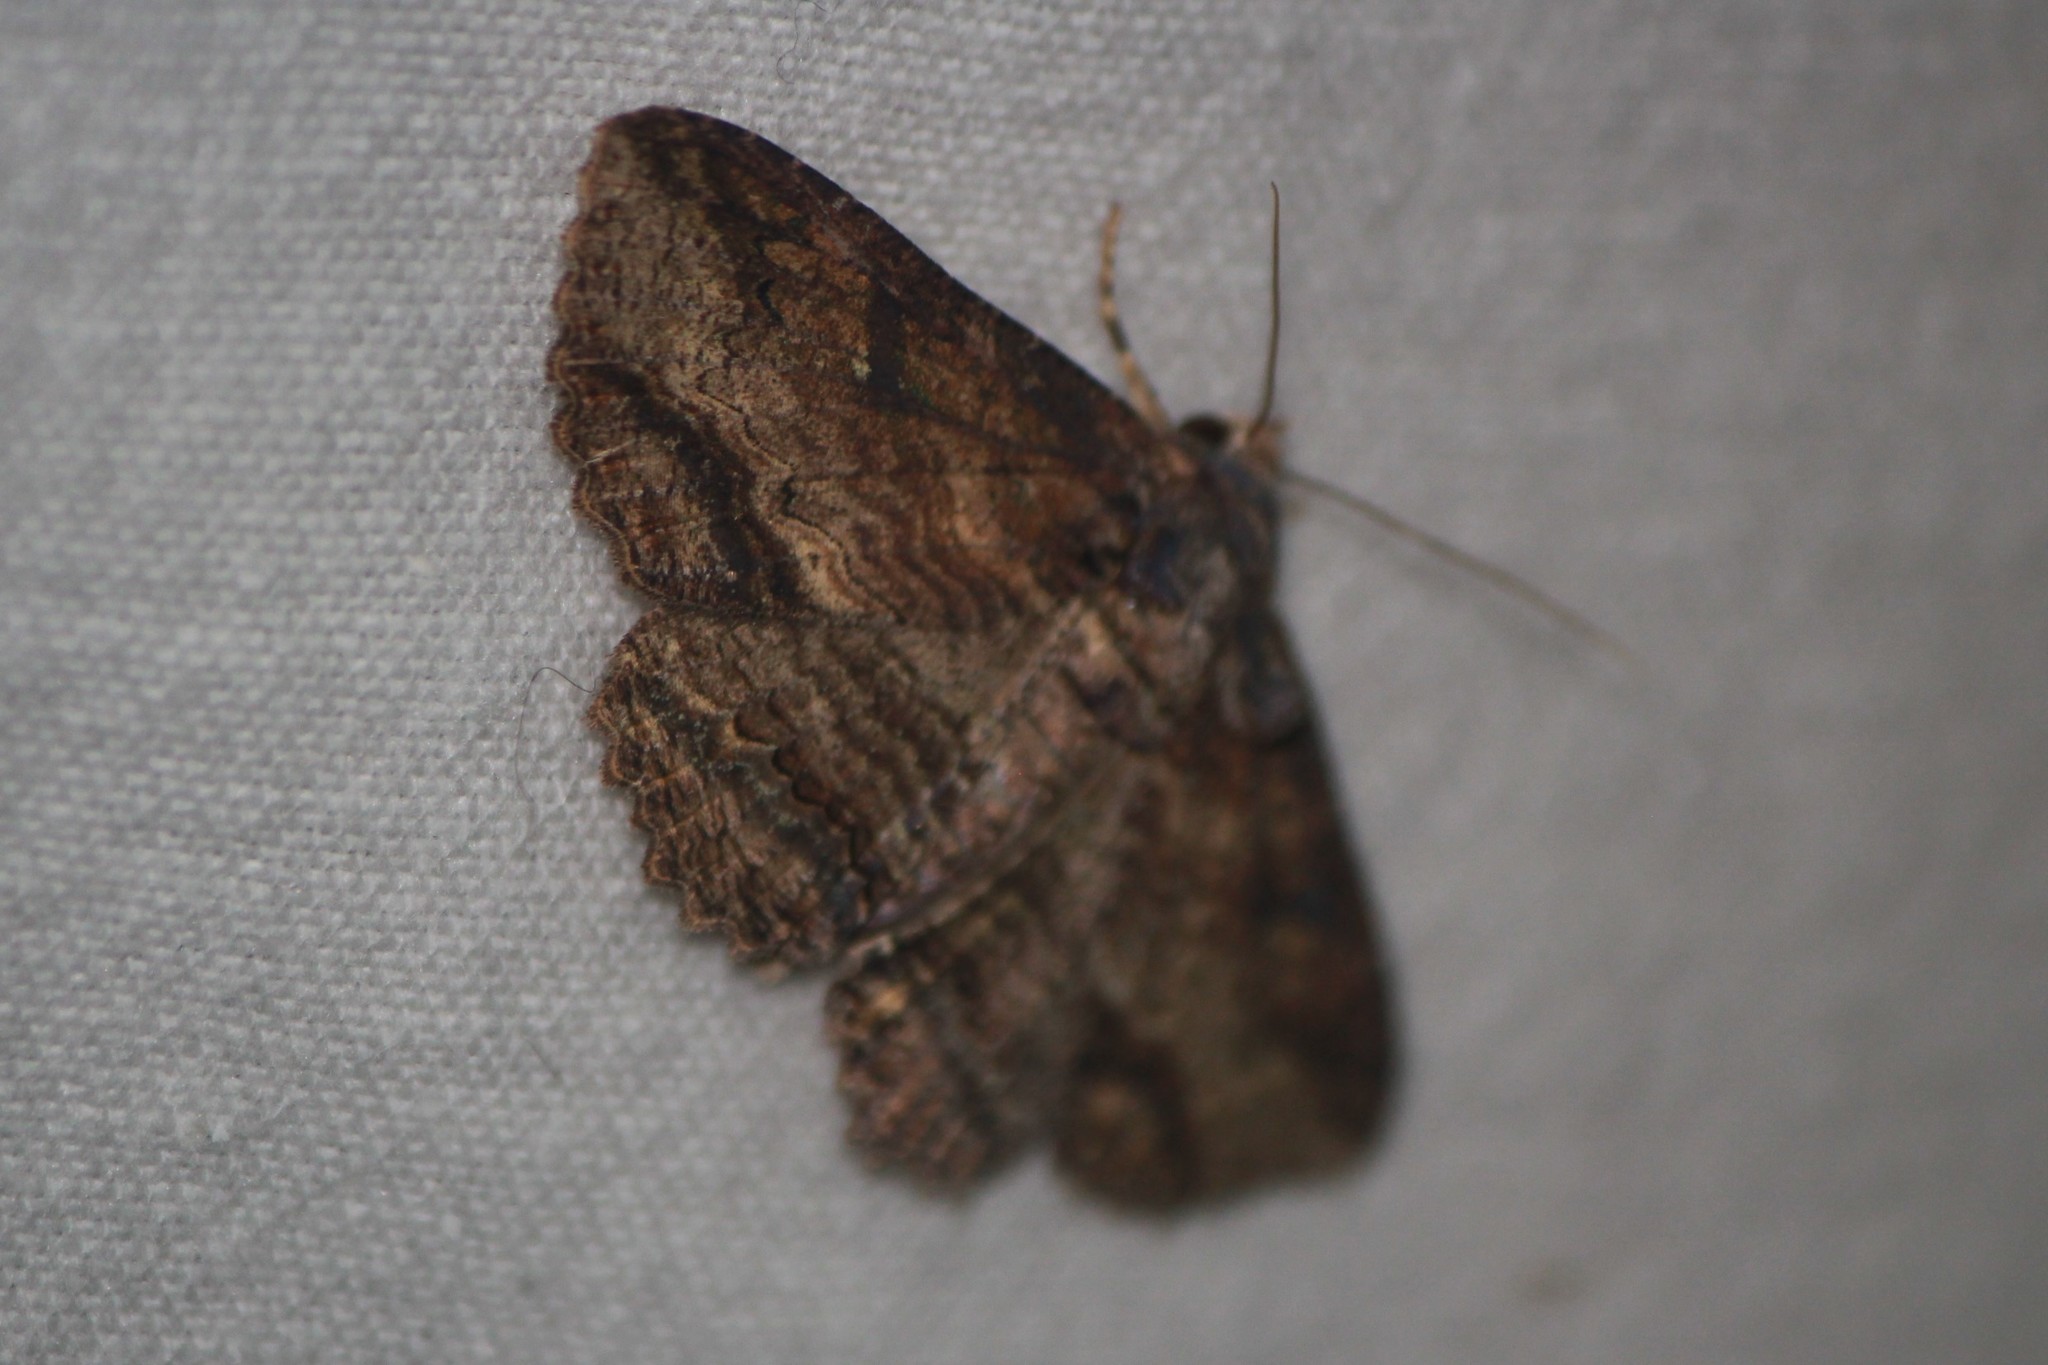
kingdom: Animalia
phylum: Arthropoda
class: Insecta
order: Lepidoptera
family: Erebidae
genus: Zale
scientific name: Zale lunata
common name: Lunate zale moth
